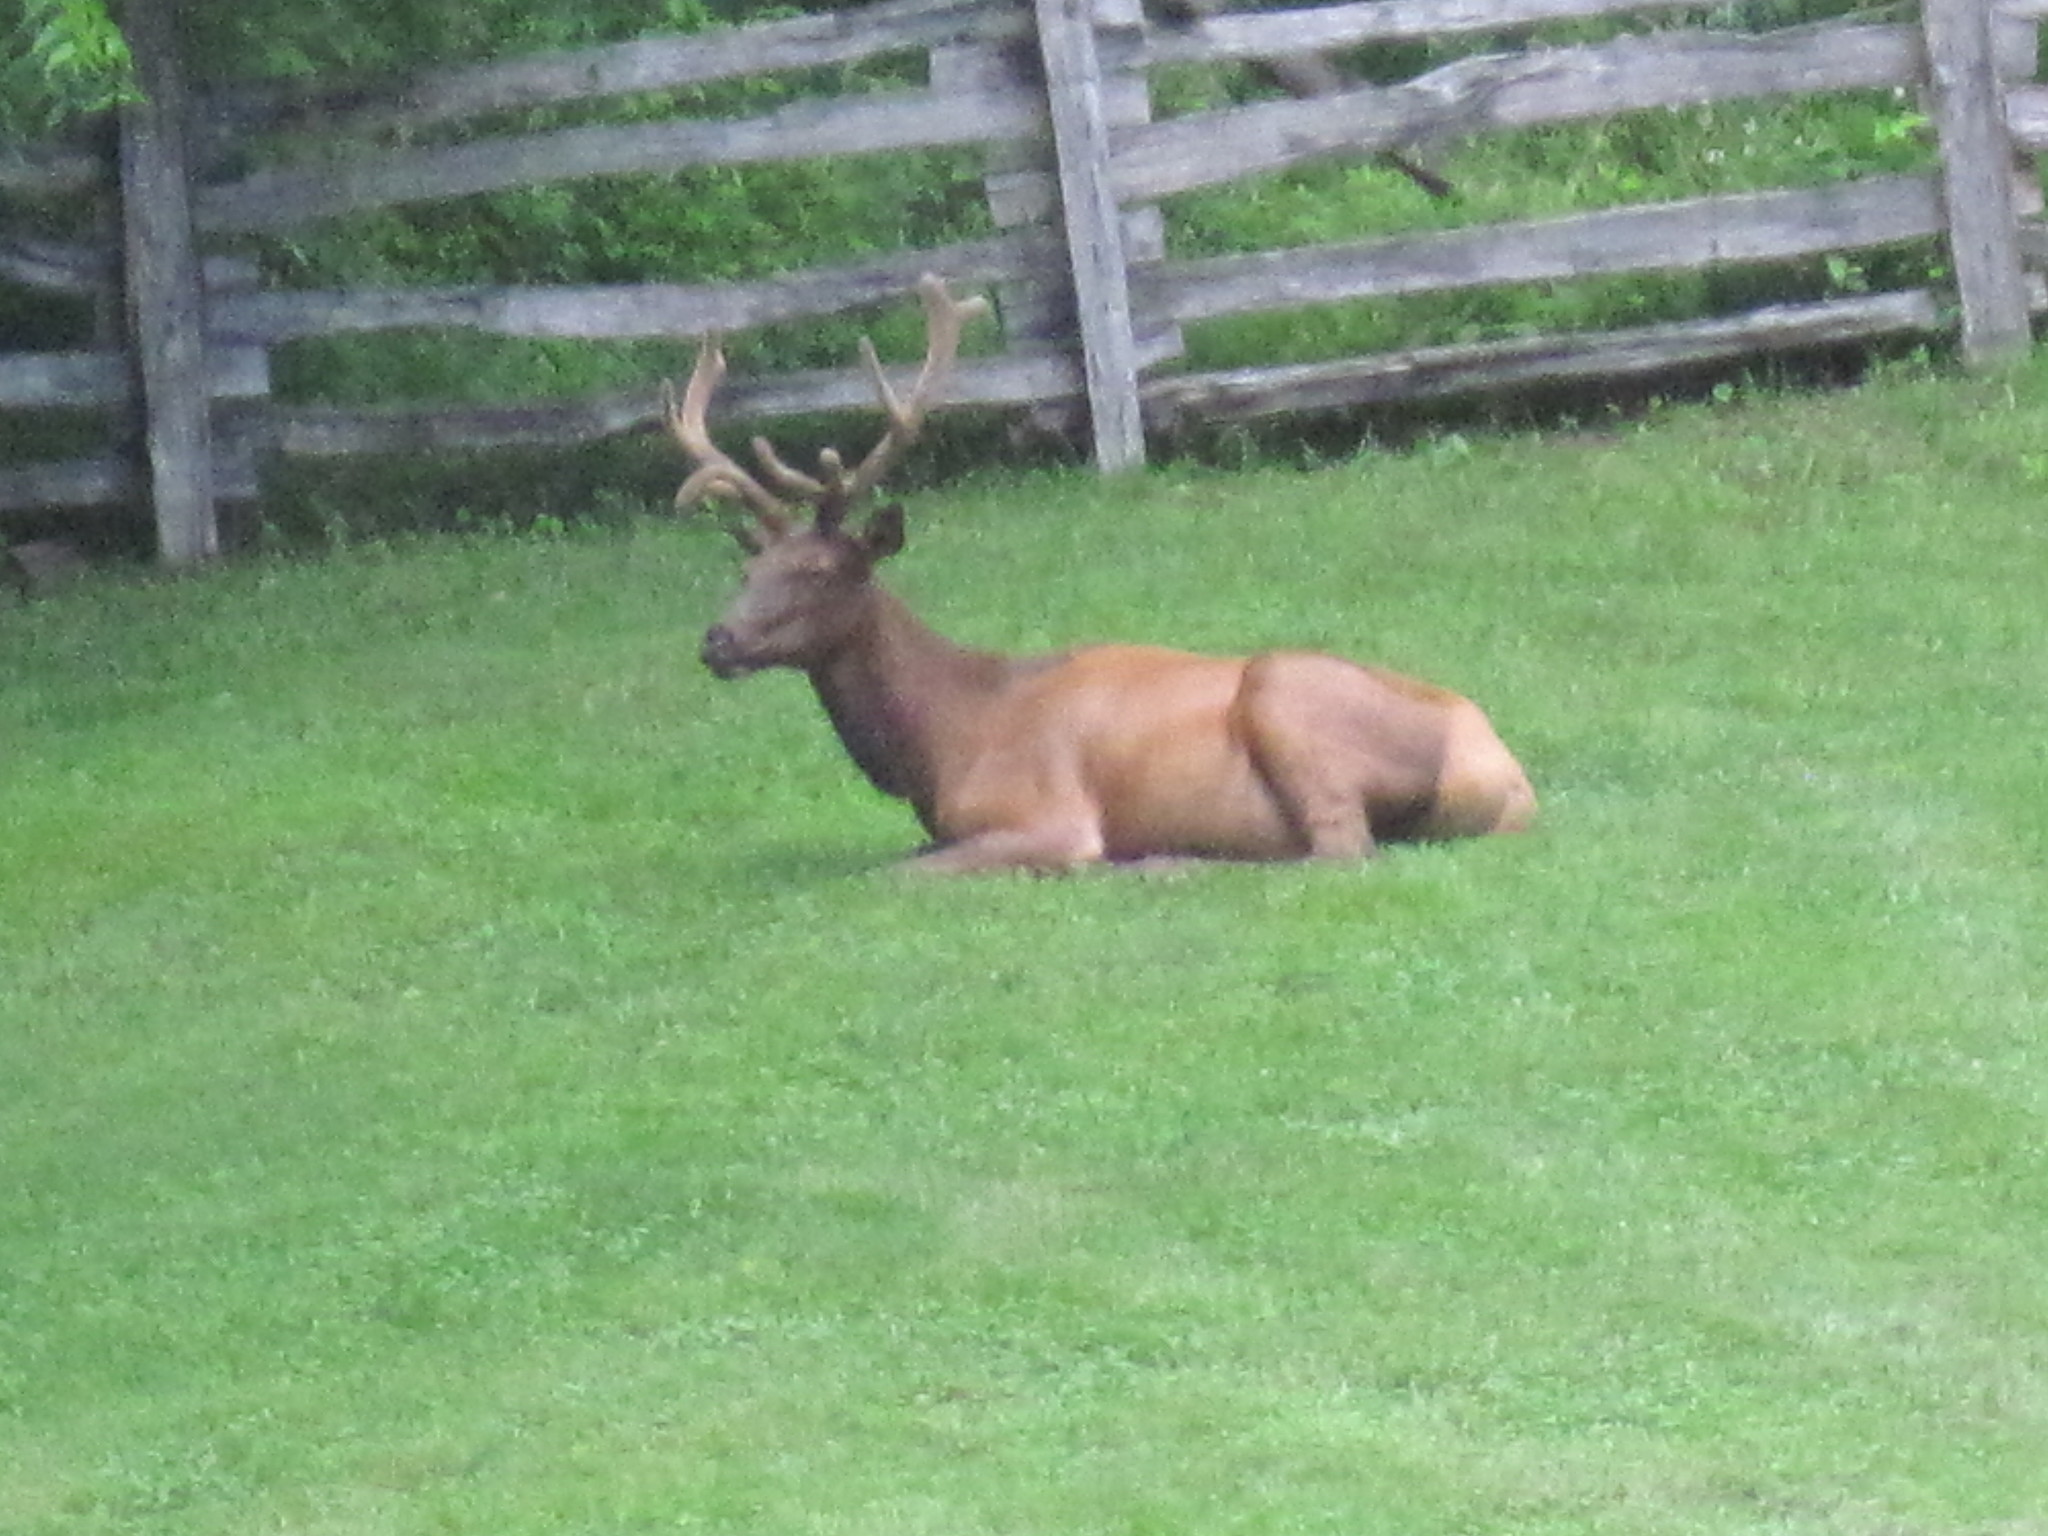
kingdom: Animalia
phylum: Chordata
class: Mammalia
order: Artiodactyla
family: Cervidae
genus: Cervus
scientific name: Cervus elaphus
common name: Red deer
